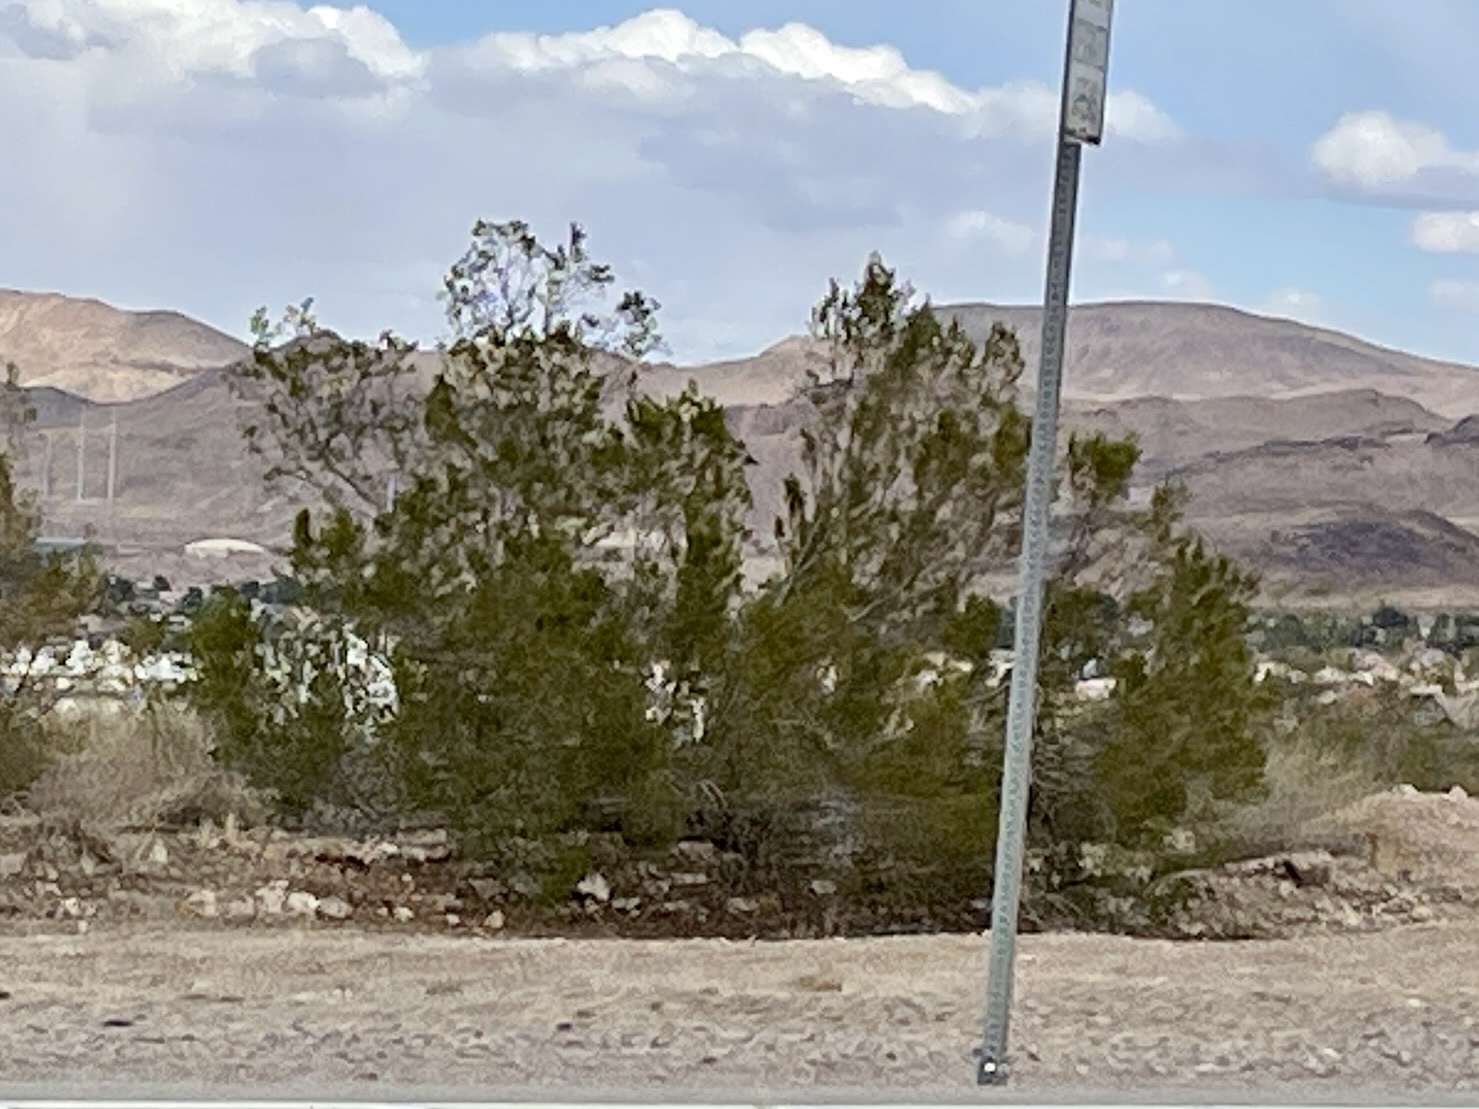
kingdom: Plantae
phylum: Tracheophyta
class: Magnoliopsida
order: Zygophyllales
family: Zygophyllaceae
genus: Larrea
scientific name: Larrea tridentata
